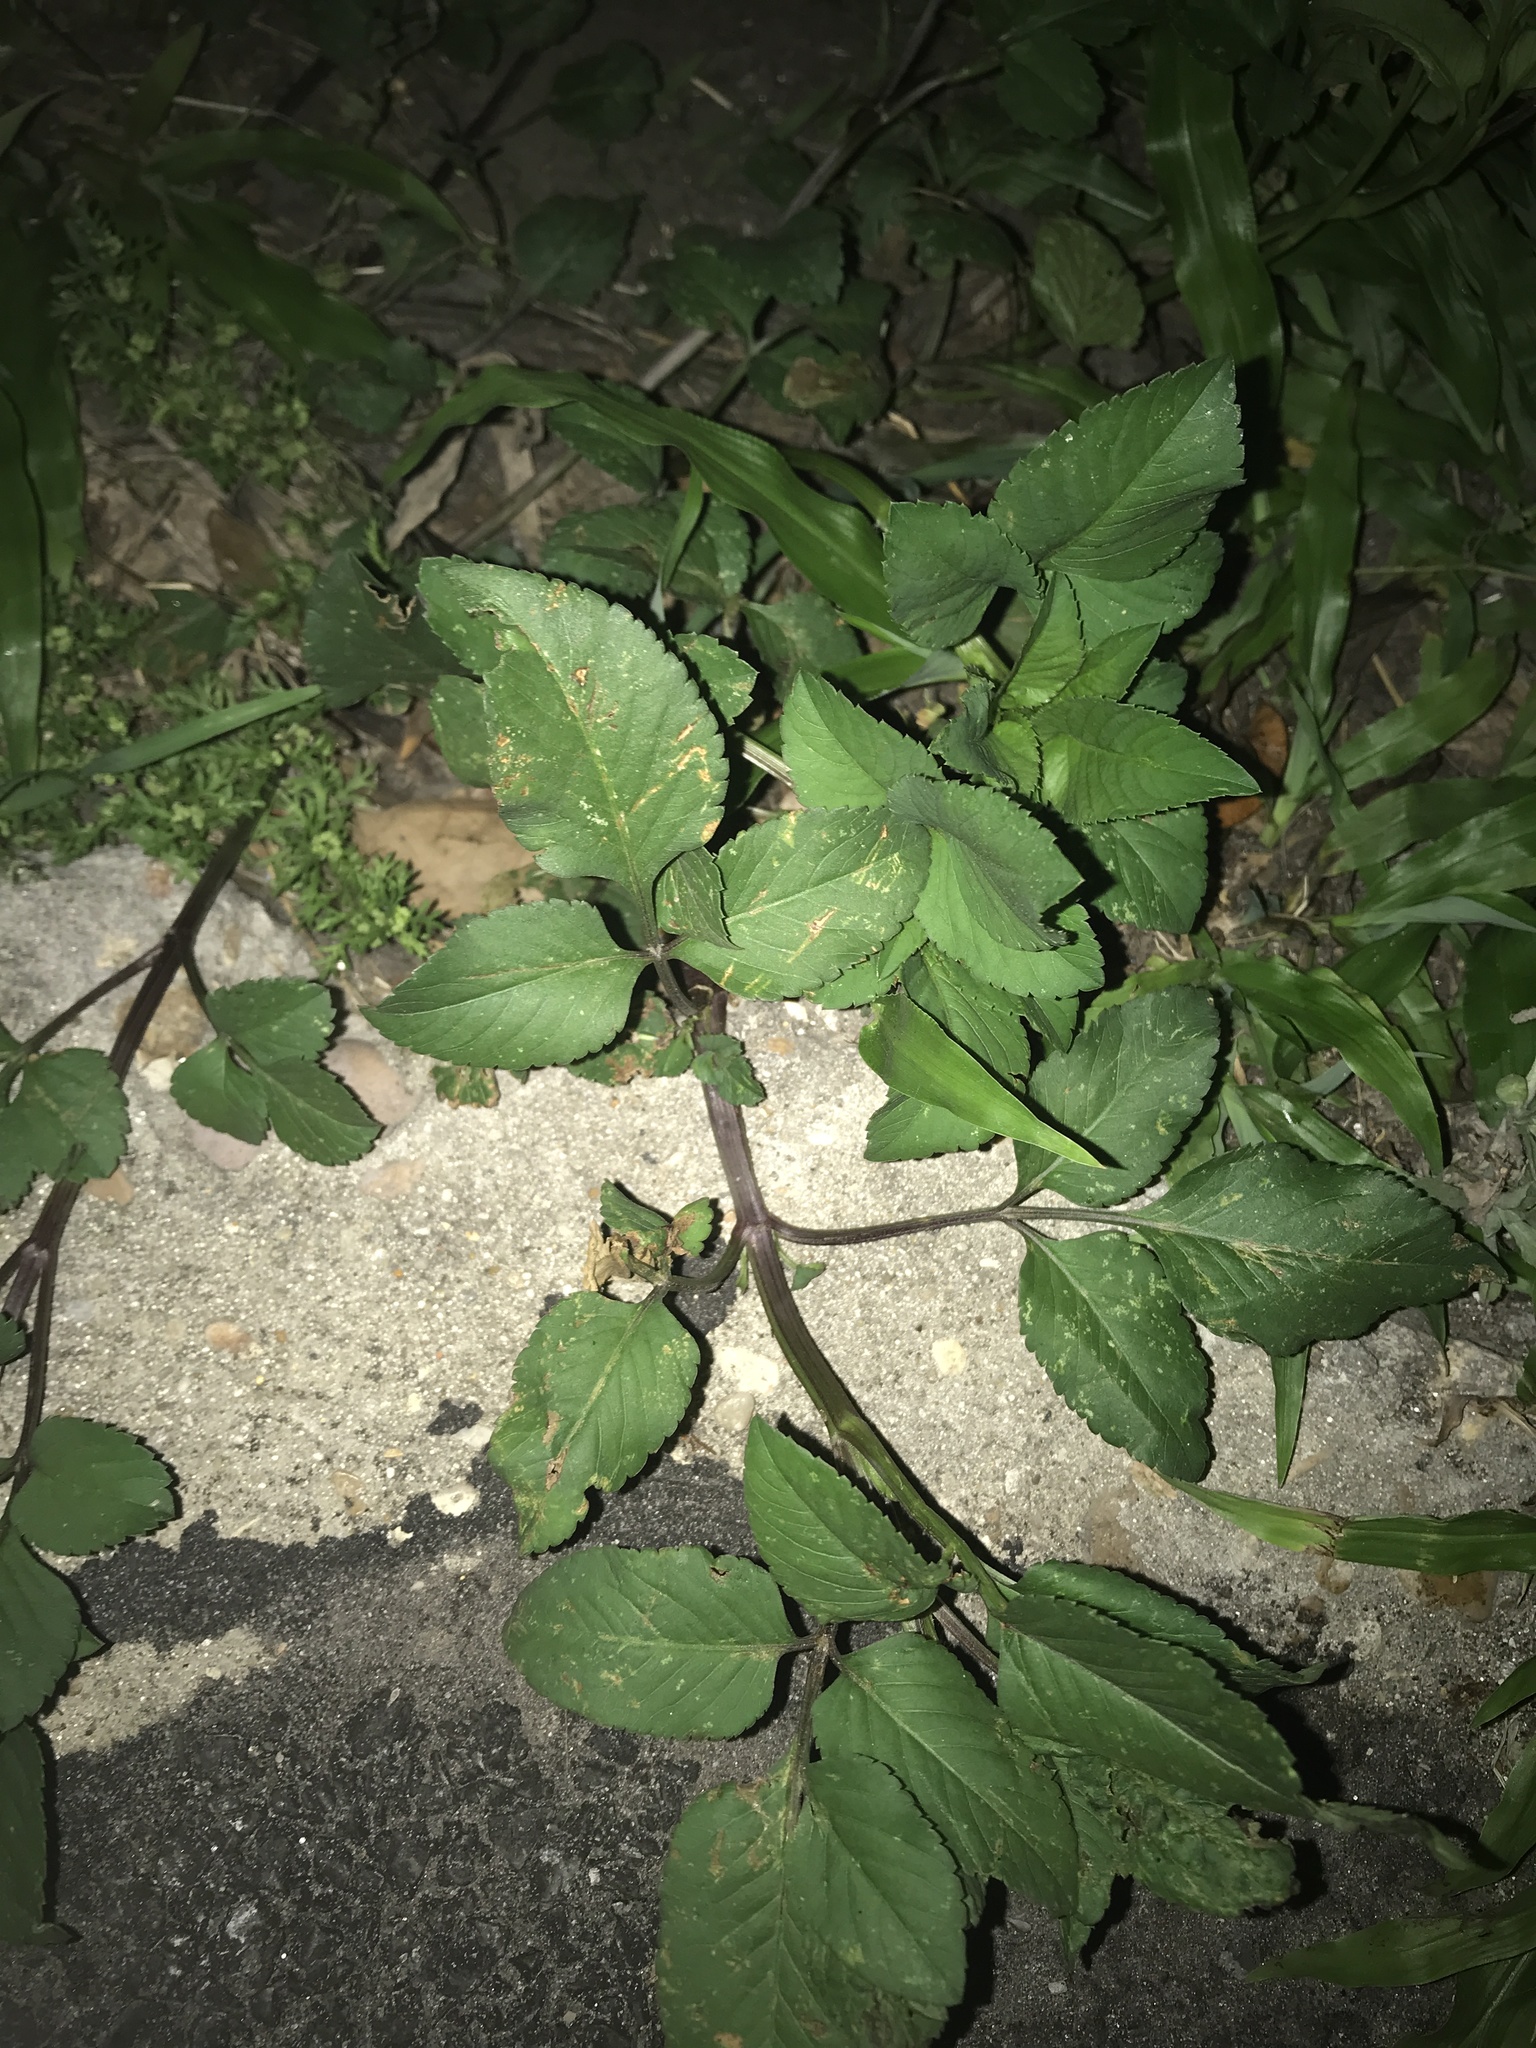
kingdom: Plantae
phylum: Tracheophyta
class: Magnoliopsida
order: Asterales
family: Asteraceae
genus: Bidens
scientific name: Bidens alba
